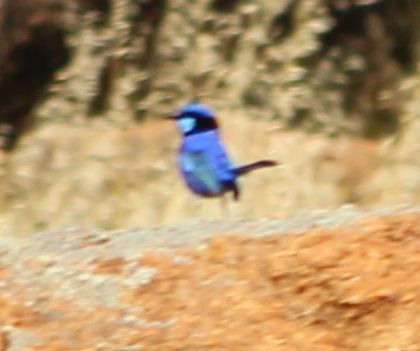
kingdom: Animalia
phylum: Chordata
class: Aves
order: Passeriformes
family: Maluridae
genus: Malurus
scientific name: Malurus splendens
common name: Splendid fairywren
